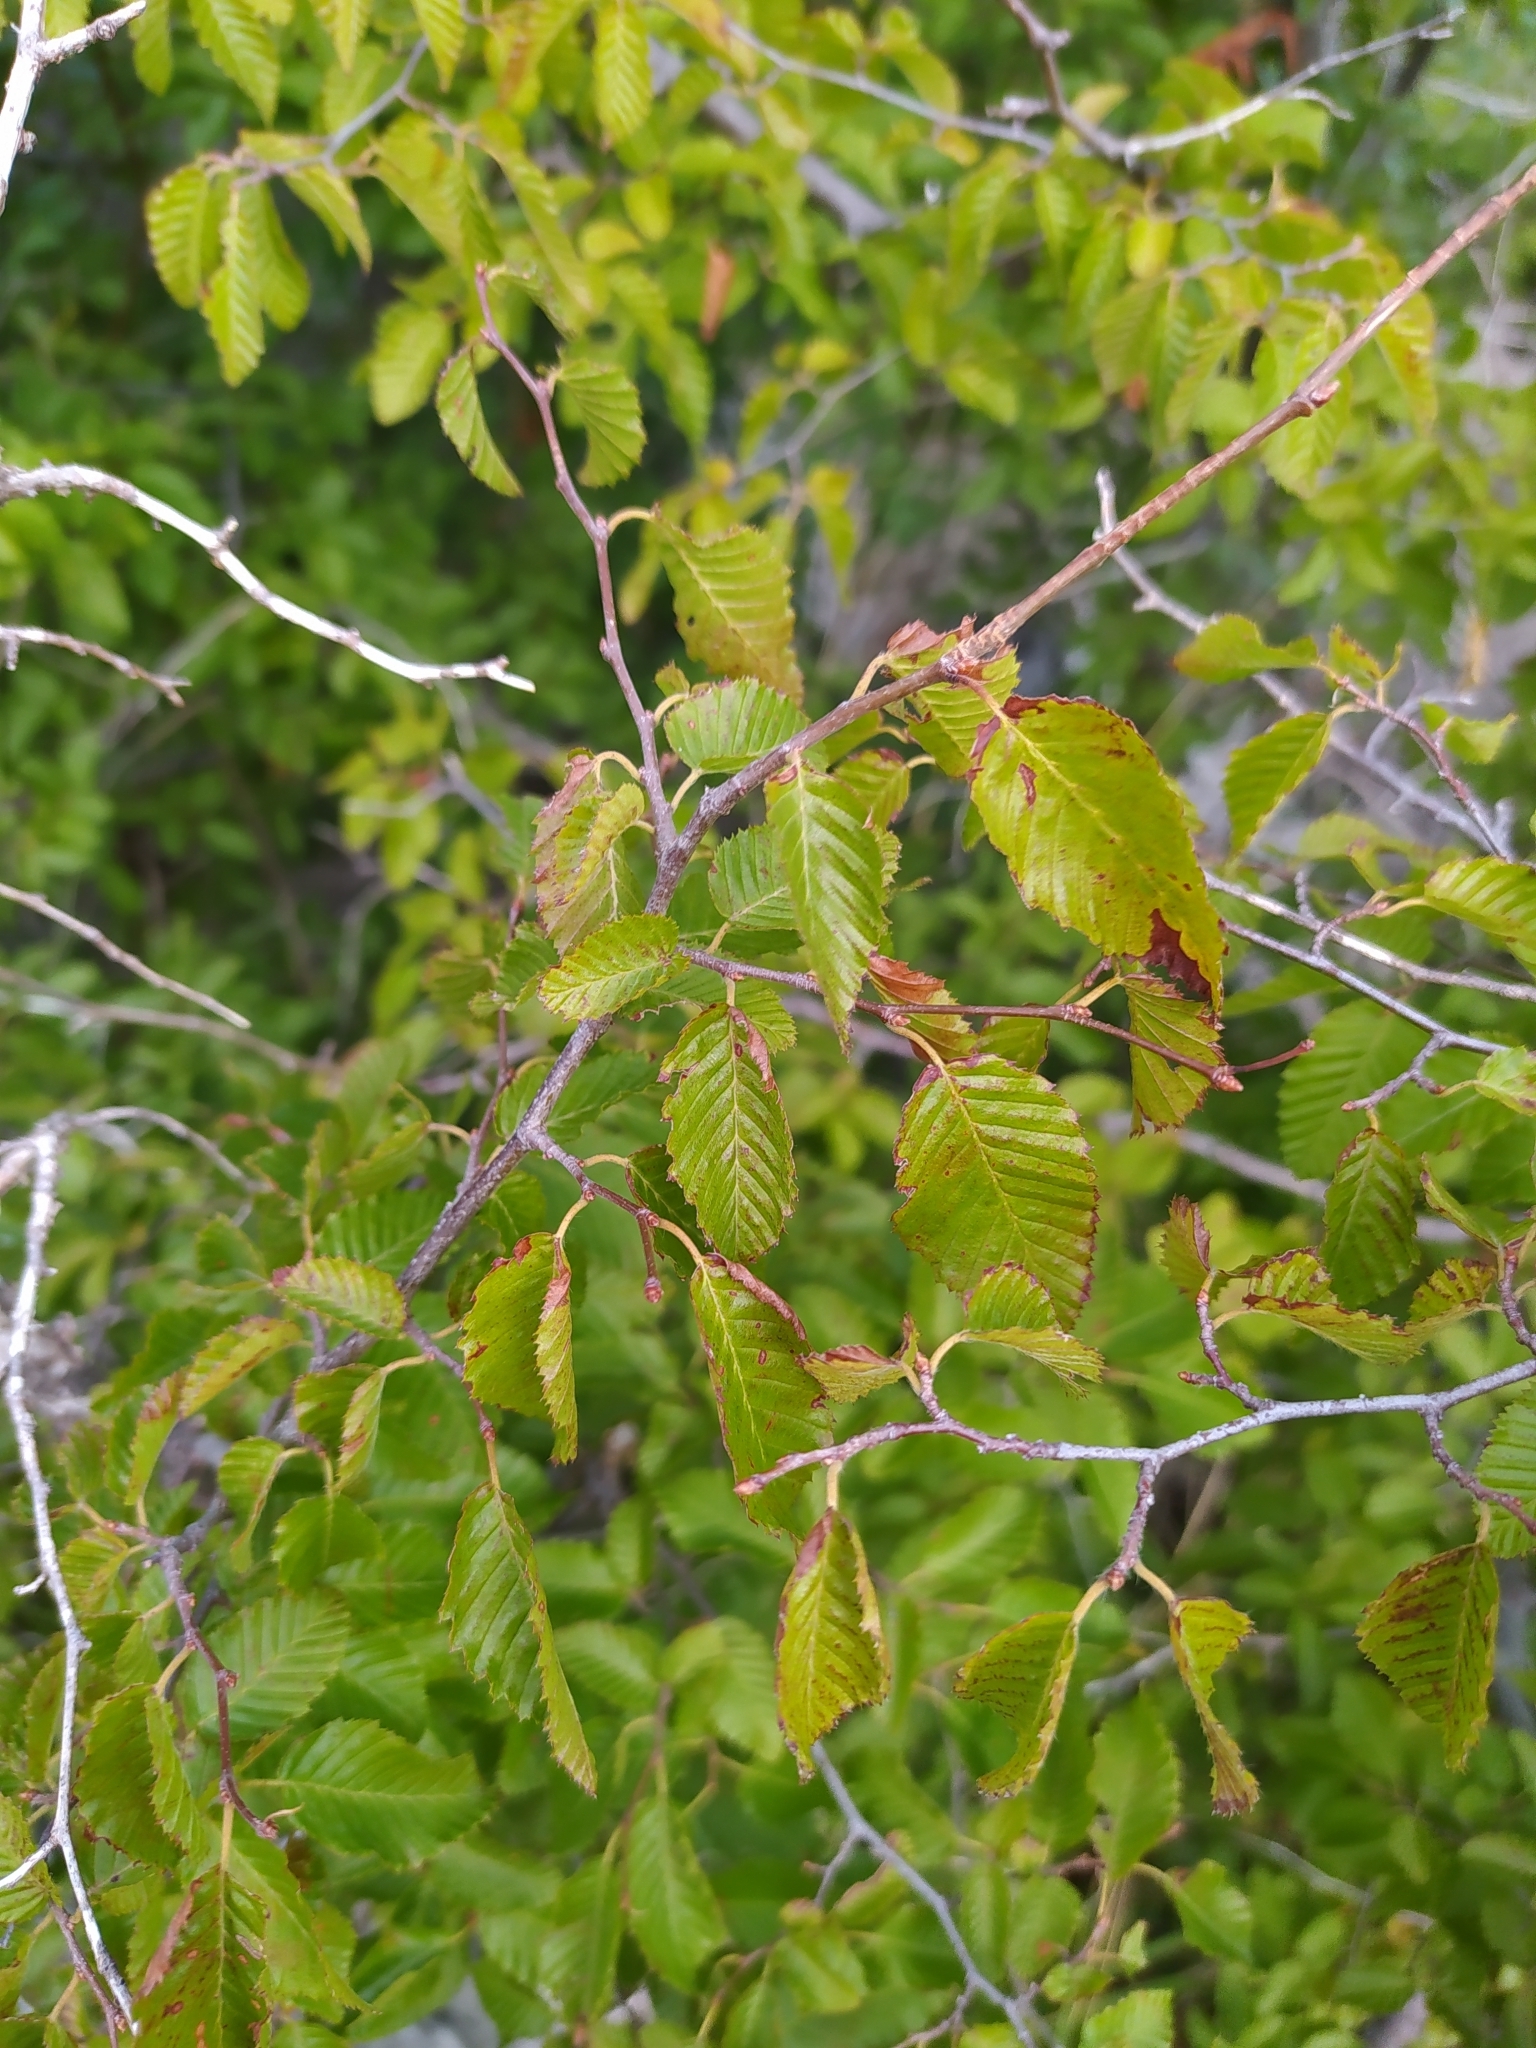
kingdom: Plantae
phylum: Tracheophyta
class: Magnoliopsida
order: Fagales
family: Betulaceae
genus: Carpinus
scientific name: Carpinus orientalis
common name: Eastern hornbeam
